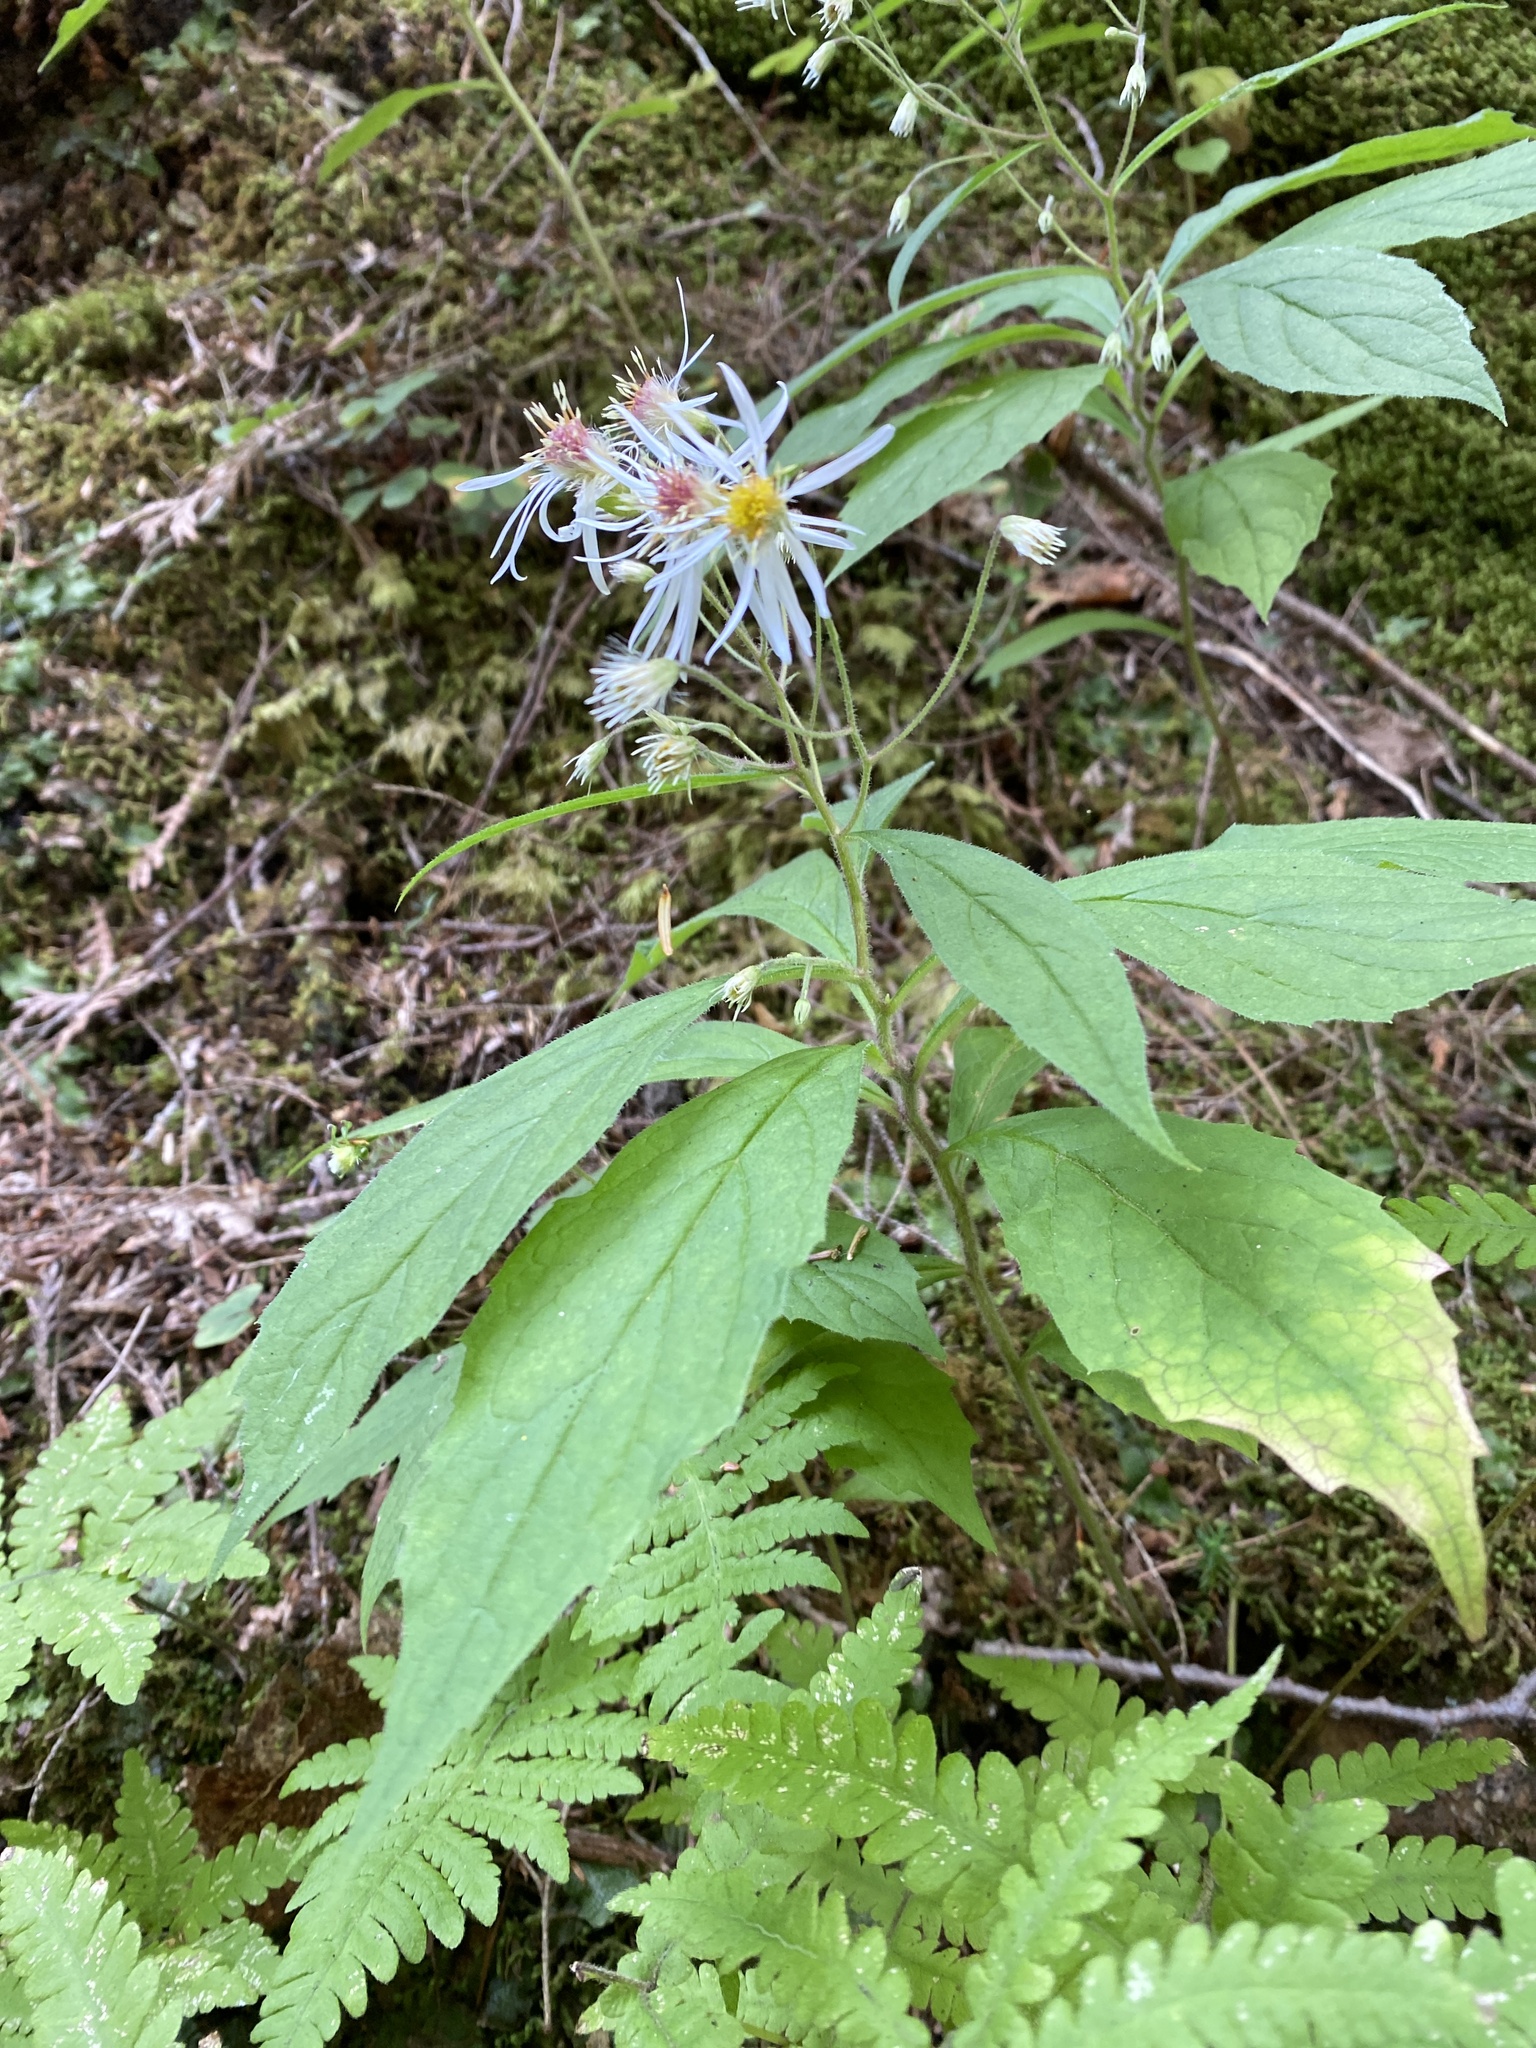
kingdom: Plantae
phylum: Tracheophyta
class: Magnoliopsida
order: Asterales
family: Asteraceae
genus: Oclemena
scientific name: Oclemena acuminata
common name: Mountain aster
